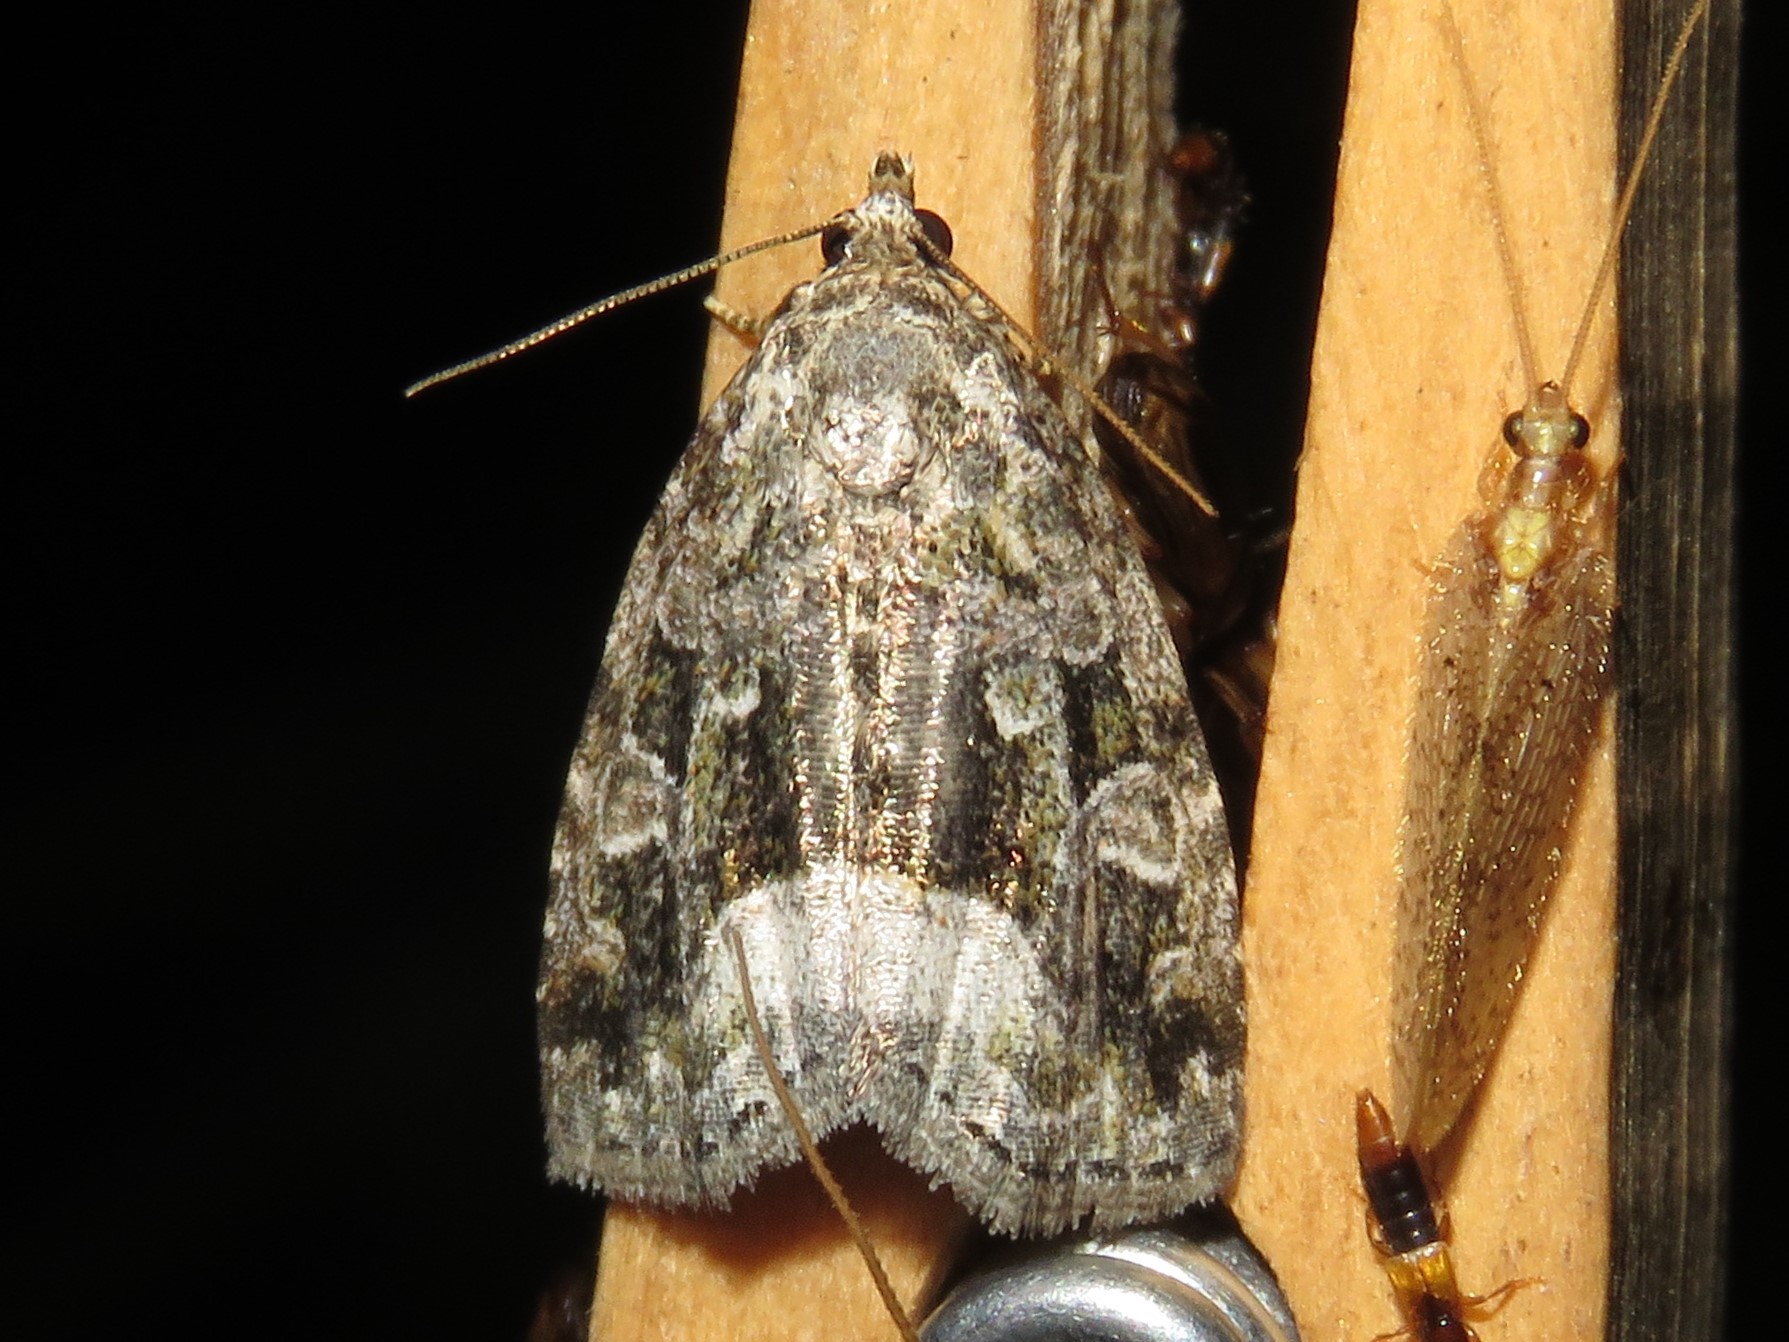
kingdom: Animalia
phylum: Arthropoda
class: Insecta
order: Lepidoptera
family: Noctuidae
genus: Protodeltote
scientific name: Protodeltote muscosula
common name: Large mossy glyph
